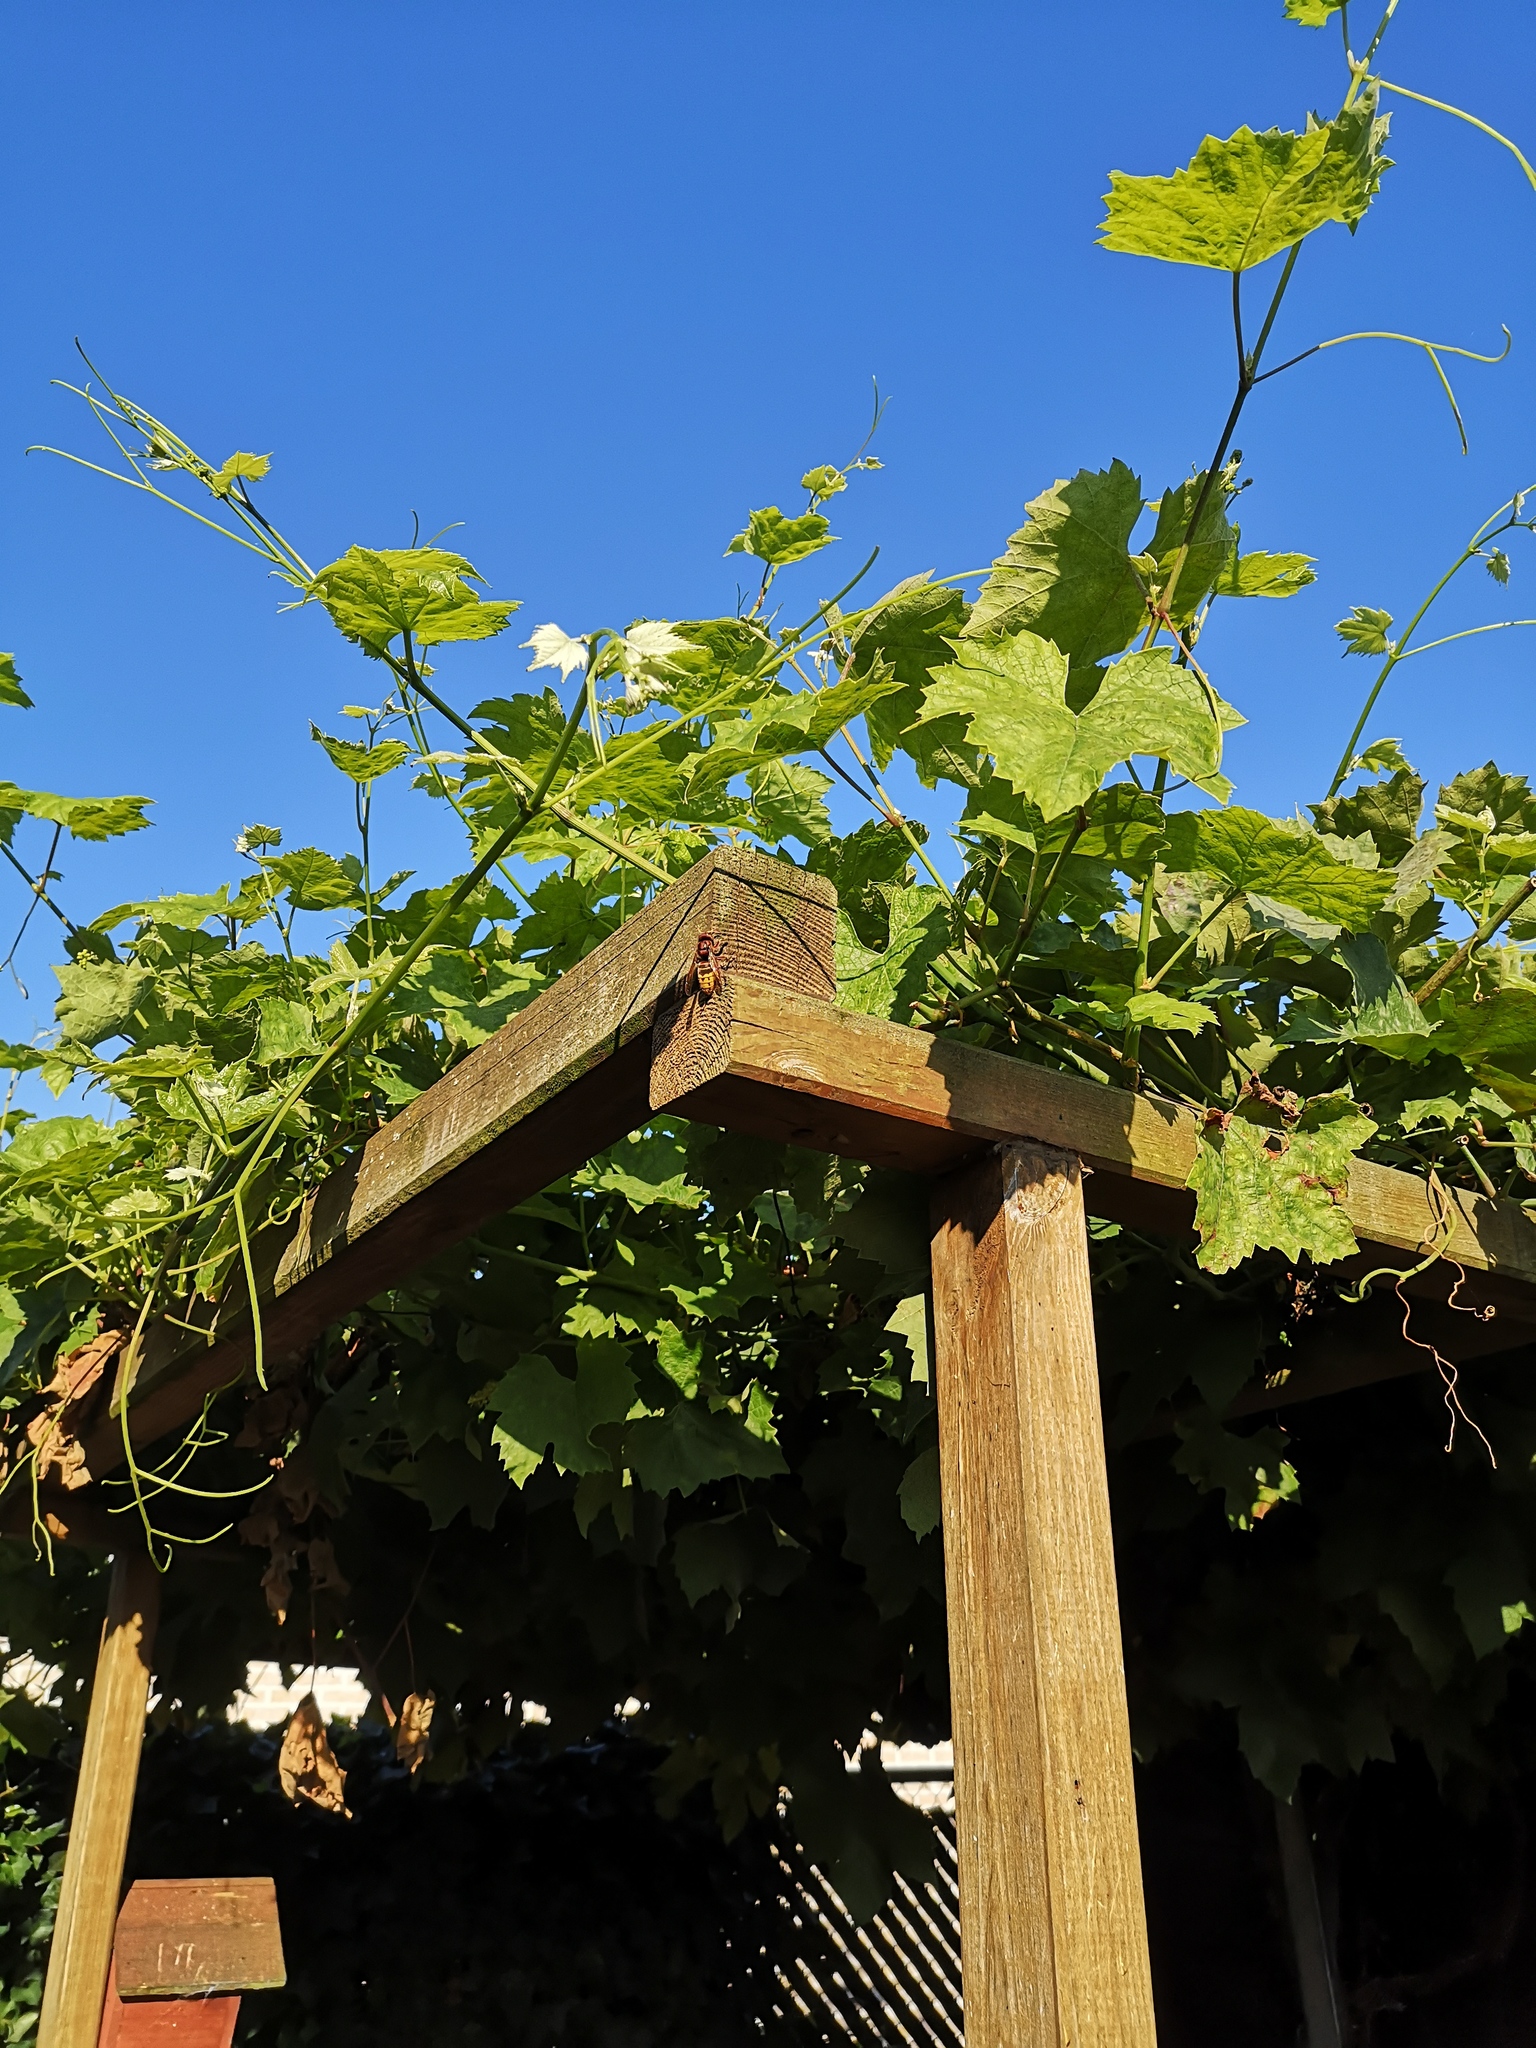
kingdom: Animalia
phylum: Arthropoda
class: Insecta
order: Hymenoptera
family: Vespidae
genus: Vespa
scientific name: Vespa crabro
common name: Hornet
